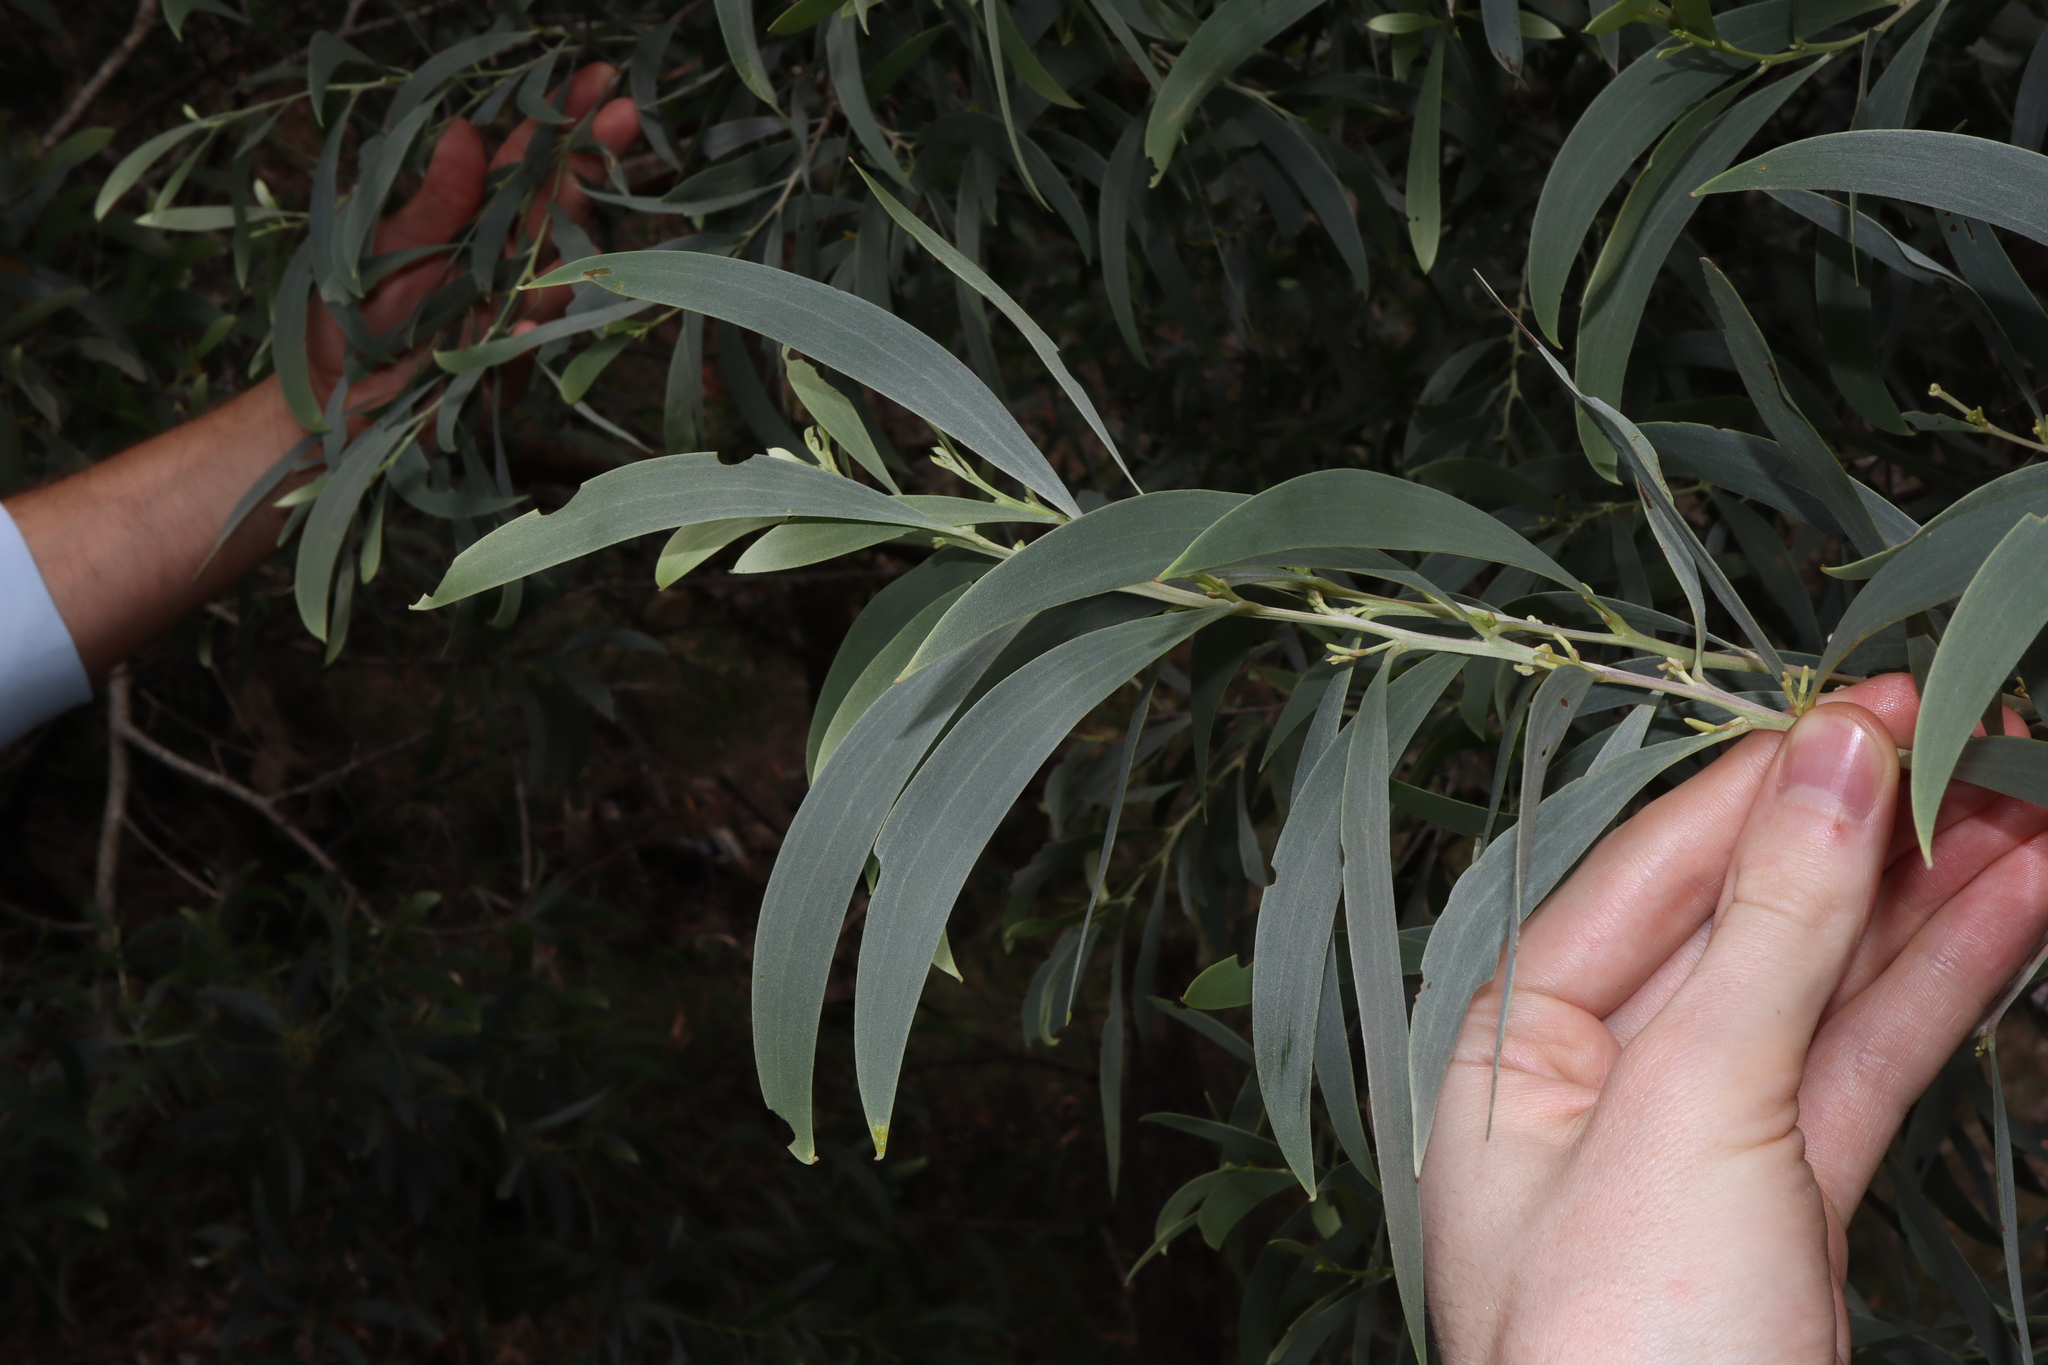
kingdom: Plantae
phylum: Tracheophyta
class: Magnoliopsida
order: Fabales
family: Fabaceae
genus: Acacia
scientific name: Acacia binervia
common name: Coast myall
